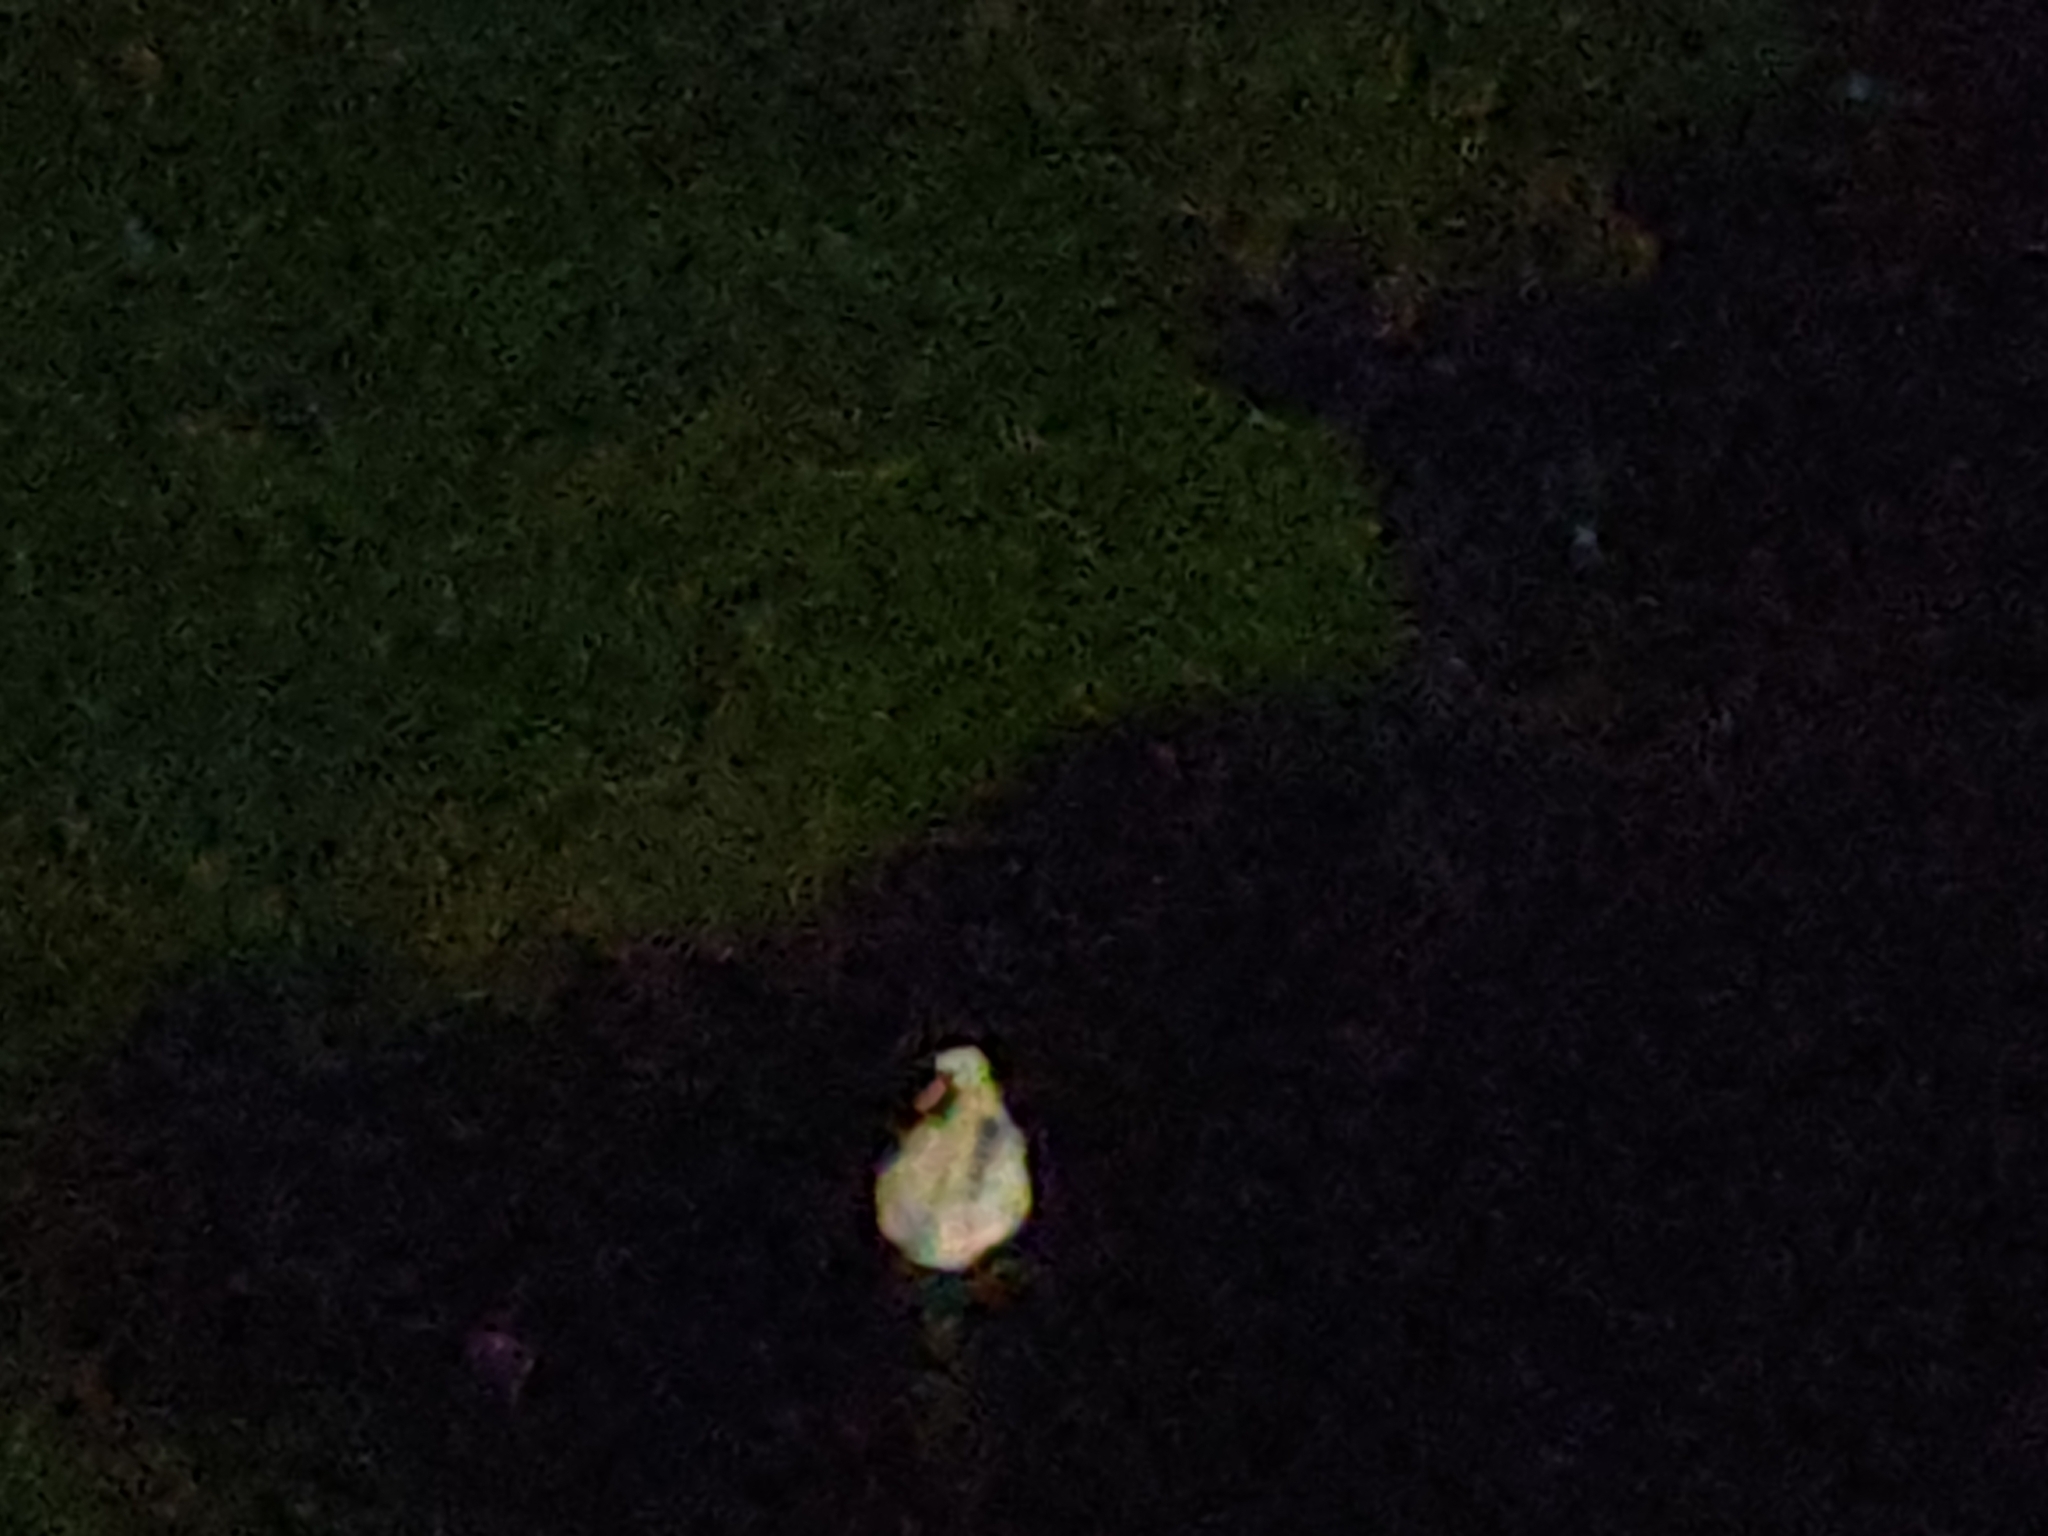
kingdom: Animalia
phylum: Chordata
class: Aves
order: Anseriformes
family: Anatidae
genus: Cygnus
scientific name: Cygnus olor
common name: Mute swan
